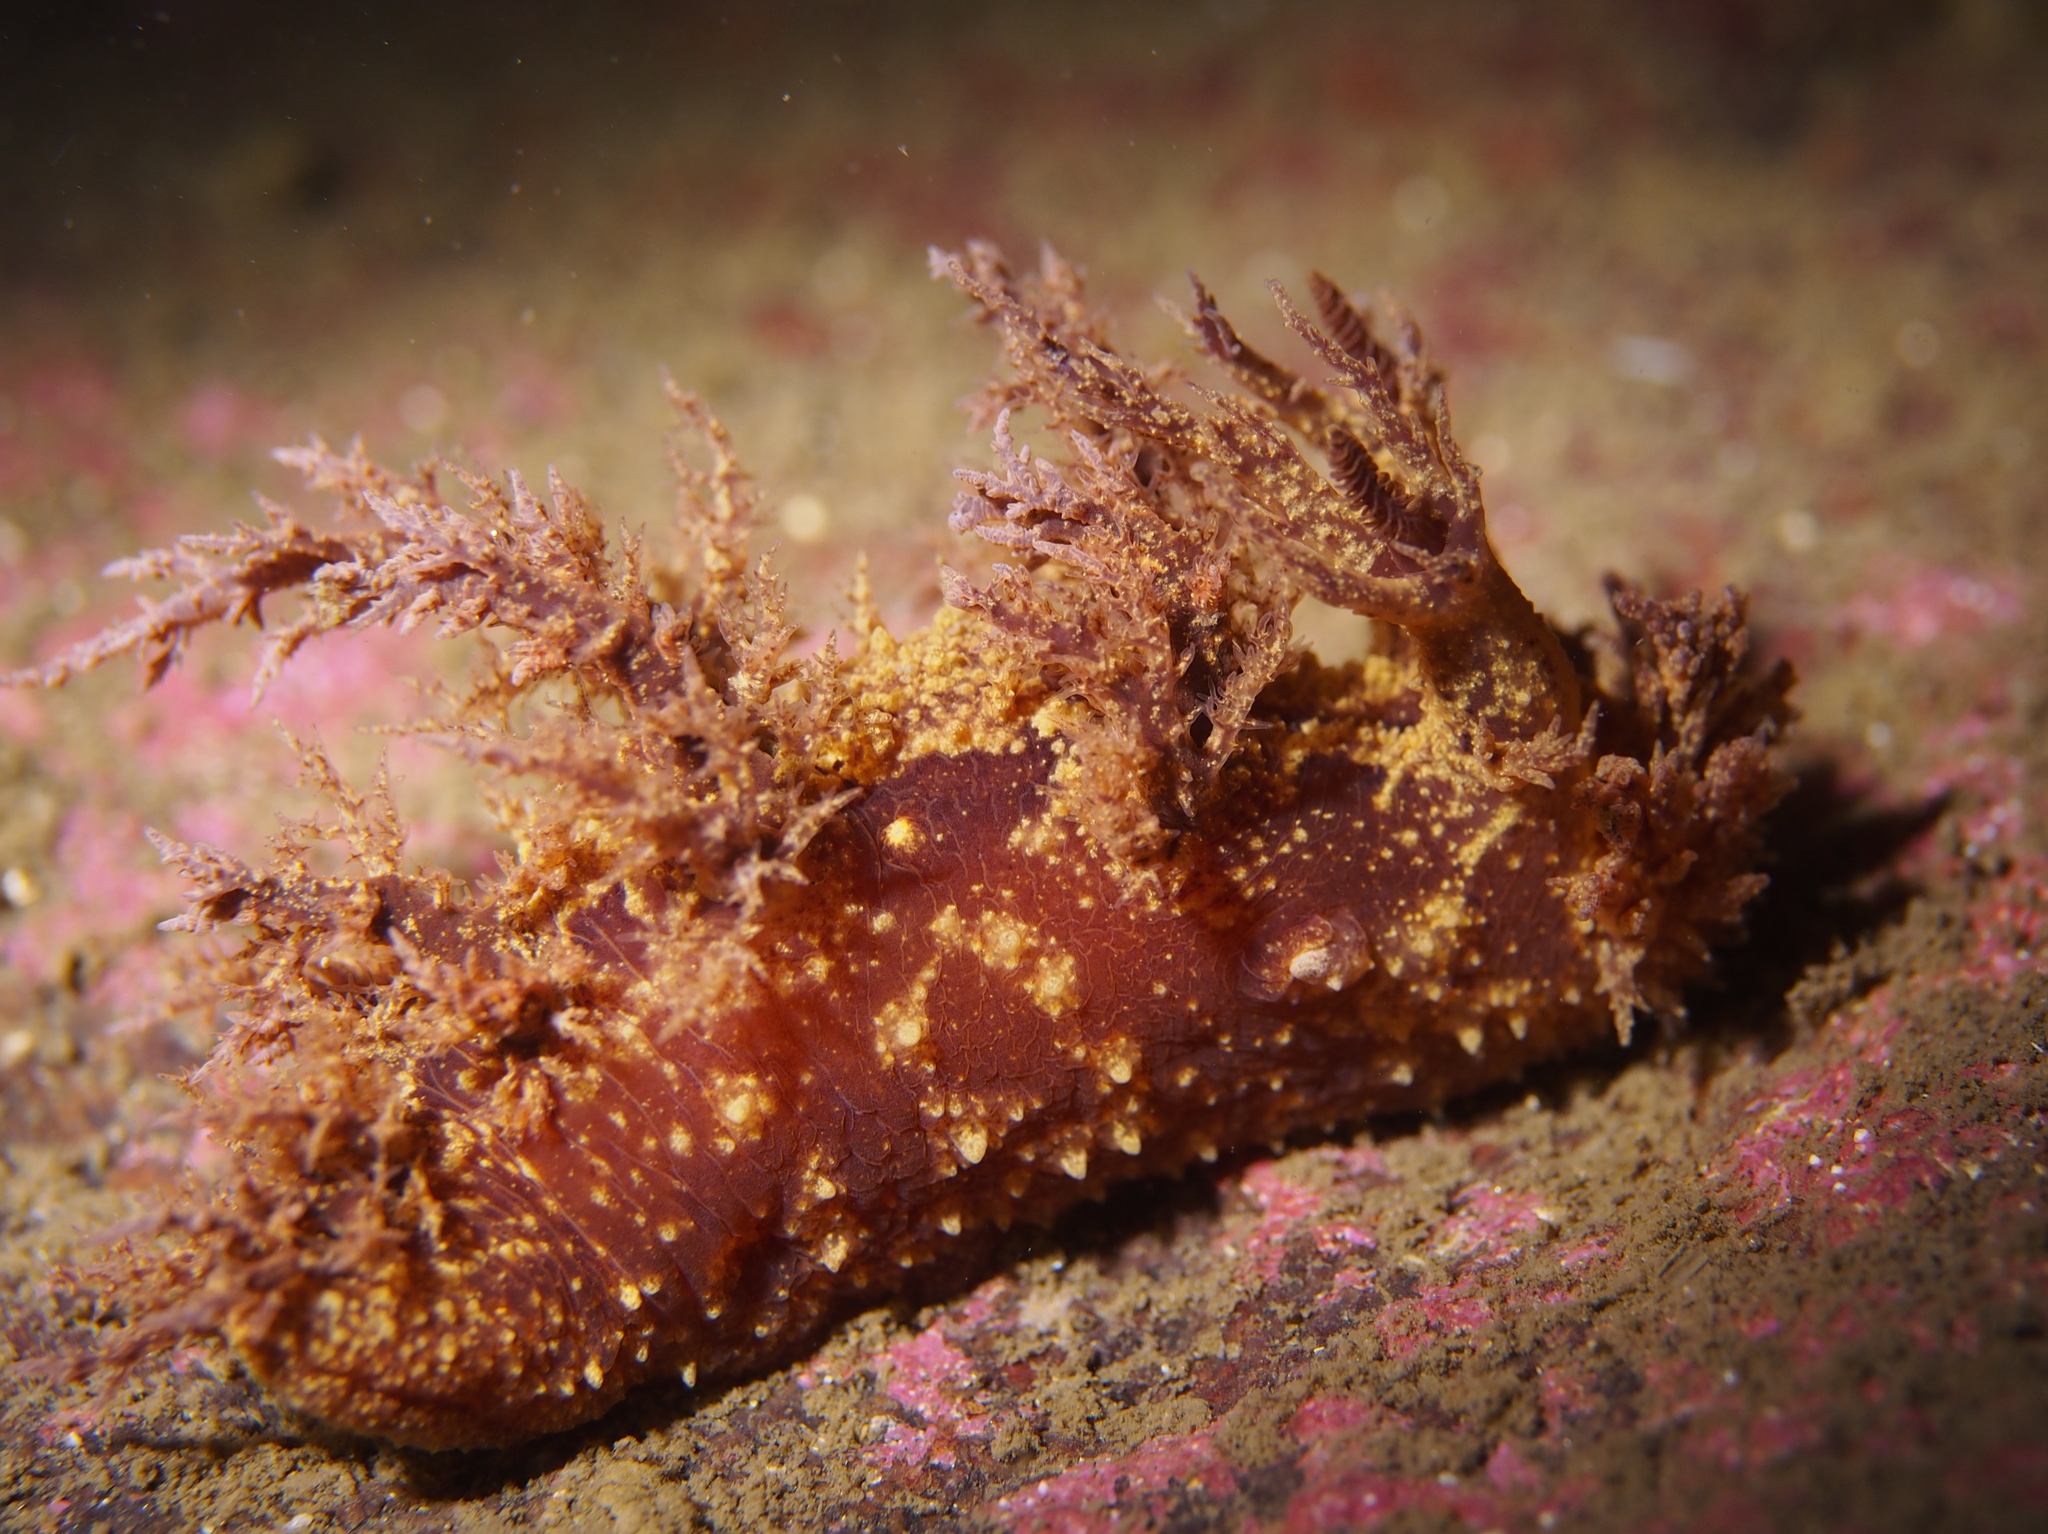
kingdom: Animalia
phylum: Mollusca
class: Gastropoda
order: Nudibranchia
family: Dendronotidae
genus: Dendronotus
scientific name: Dendronotus frondosus
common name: Bushy-backed nudibranch
